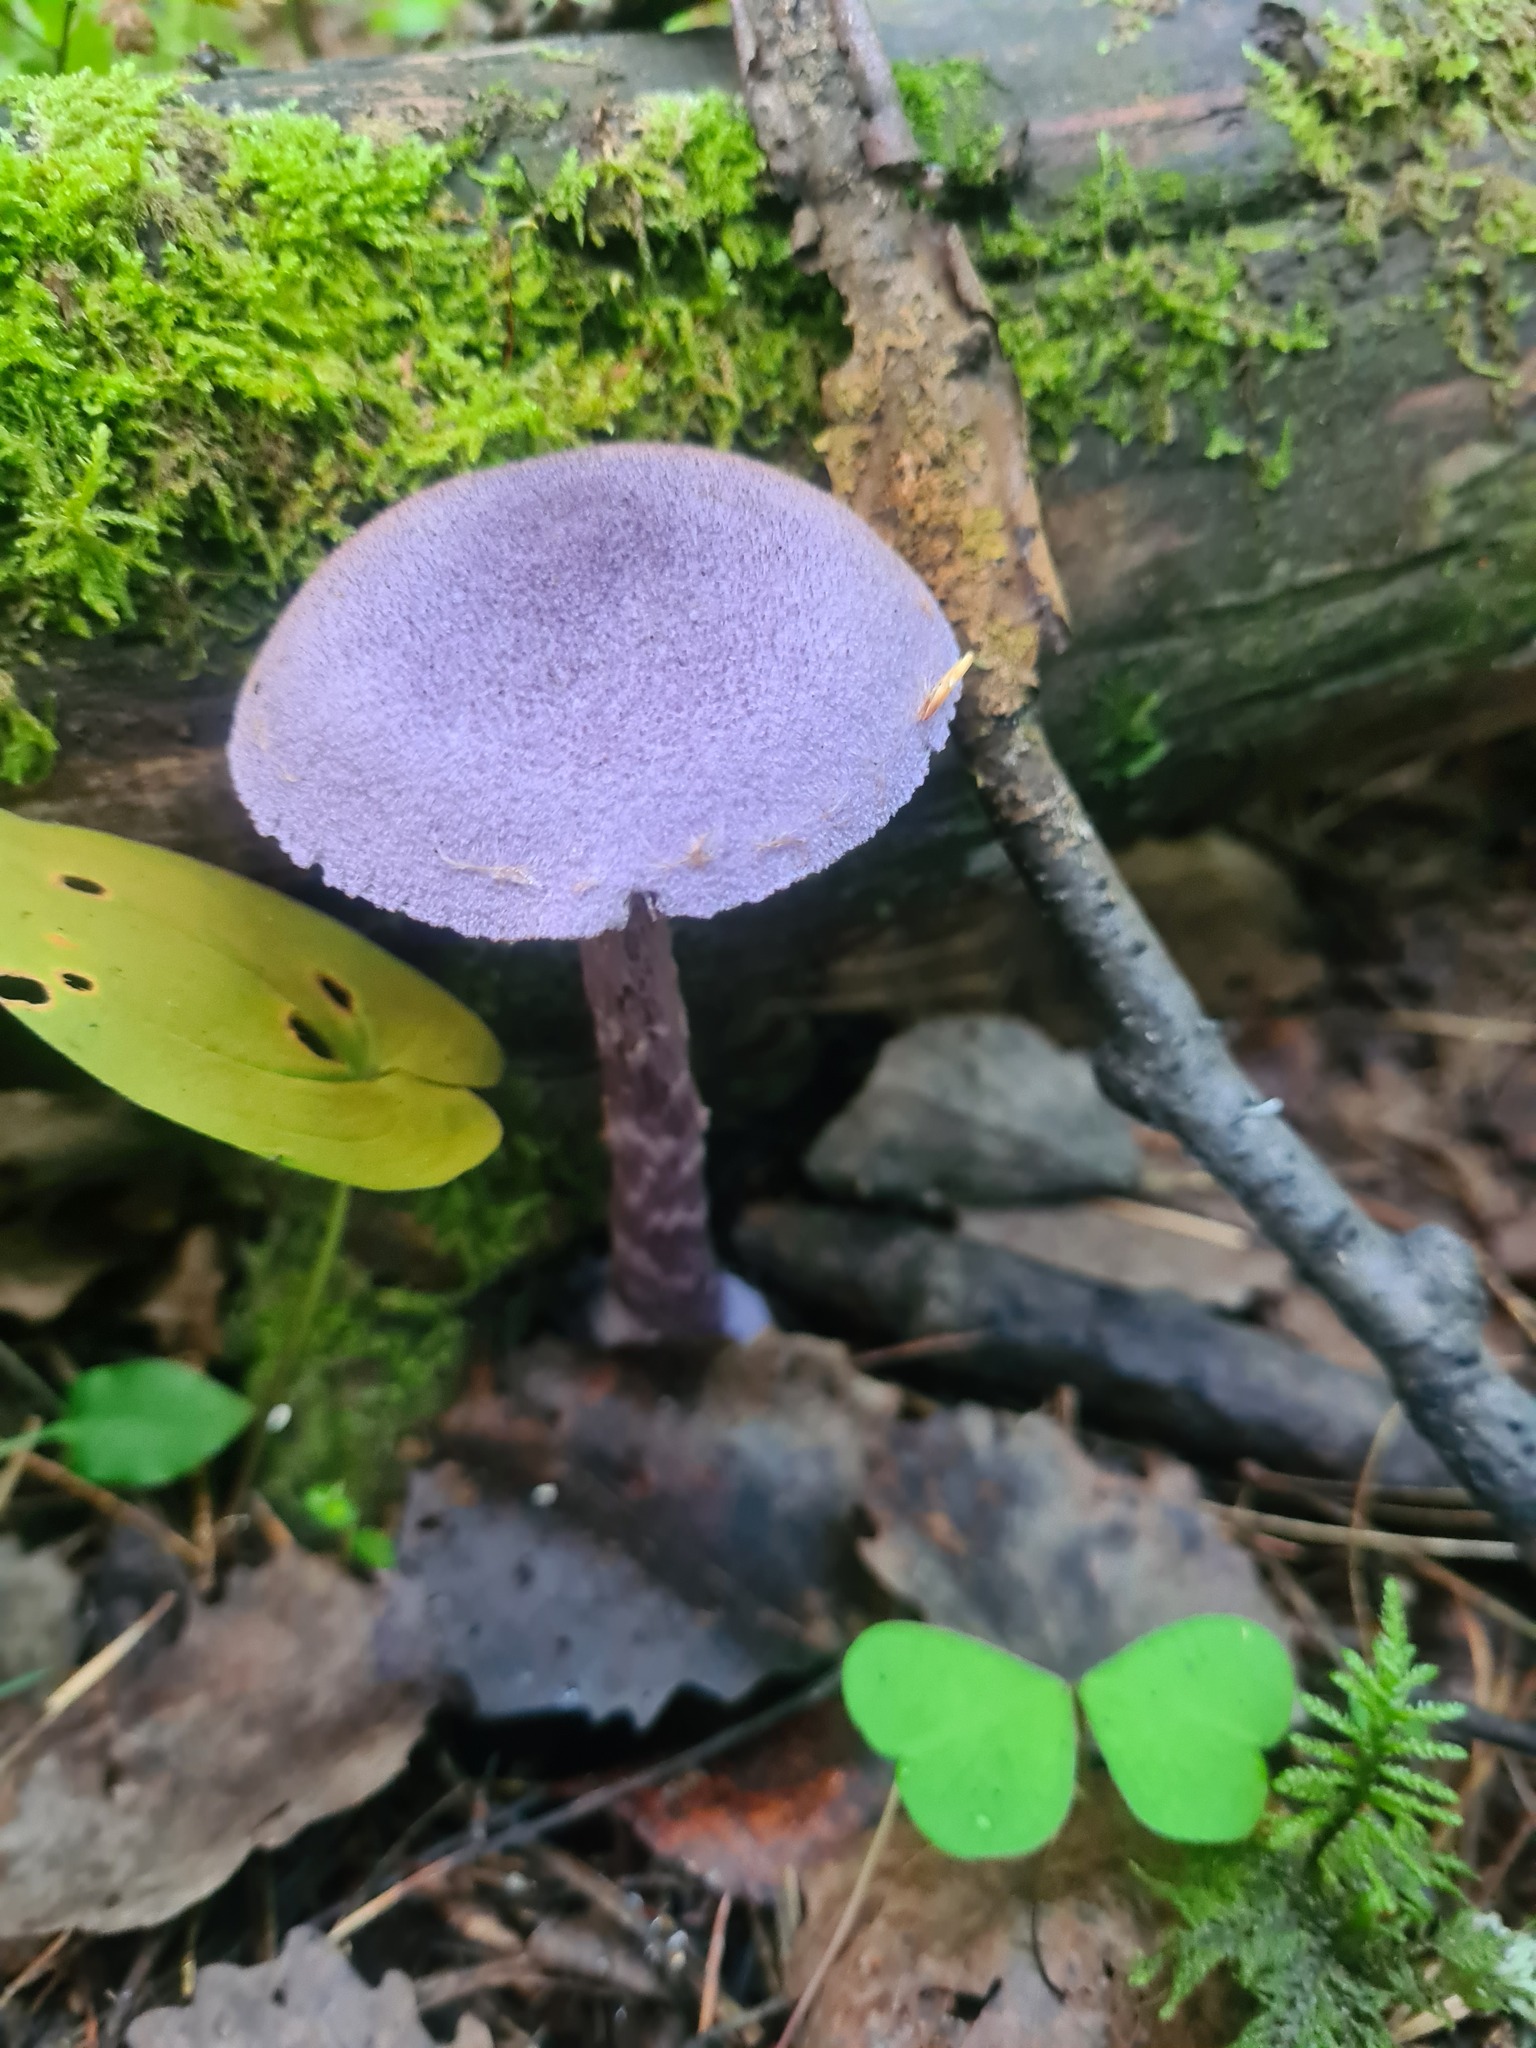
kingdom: Fungi
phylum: Basidiomycota
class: Agaricomycetes
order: Agaricales
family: Cortinariaceae
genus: Cortinarius
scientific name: Cortinarius violaceus
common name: Violet webcap
